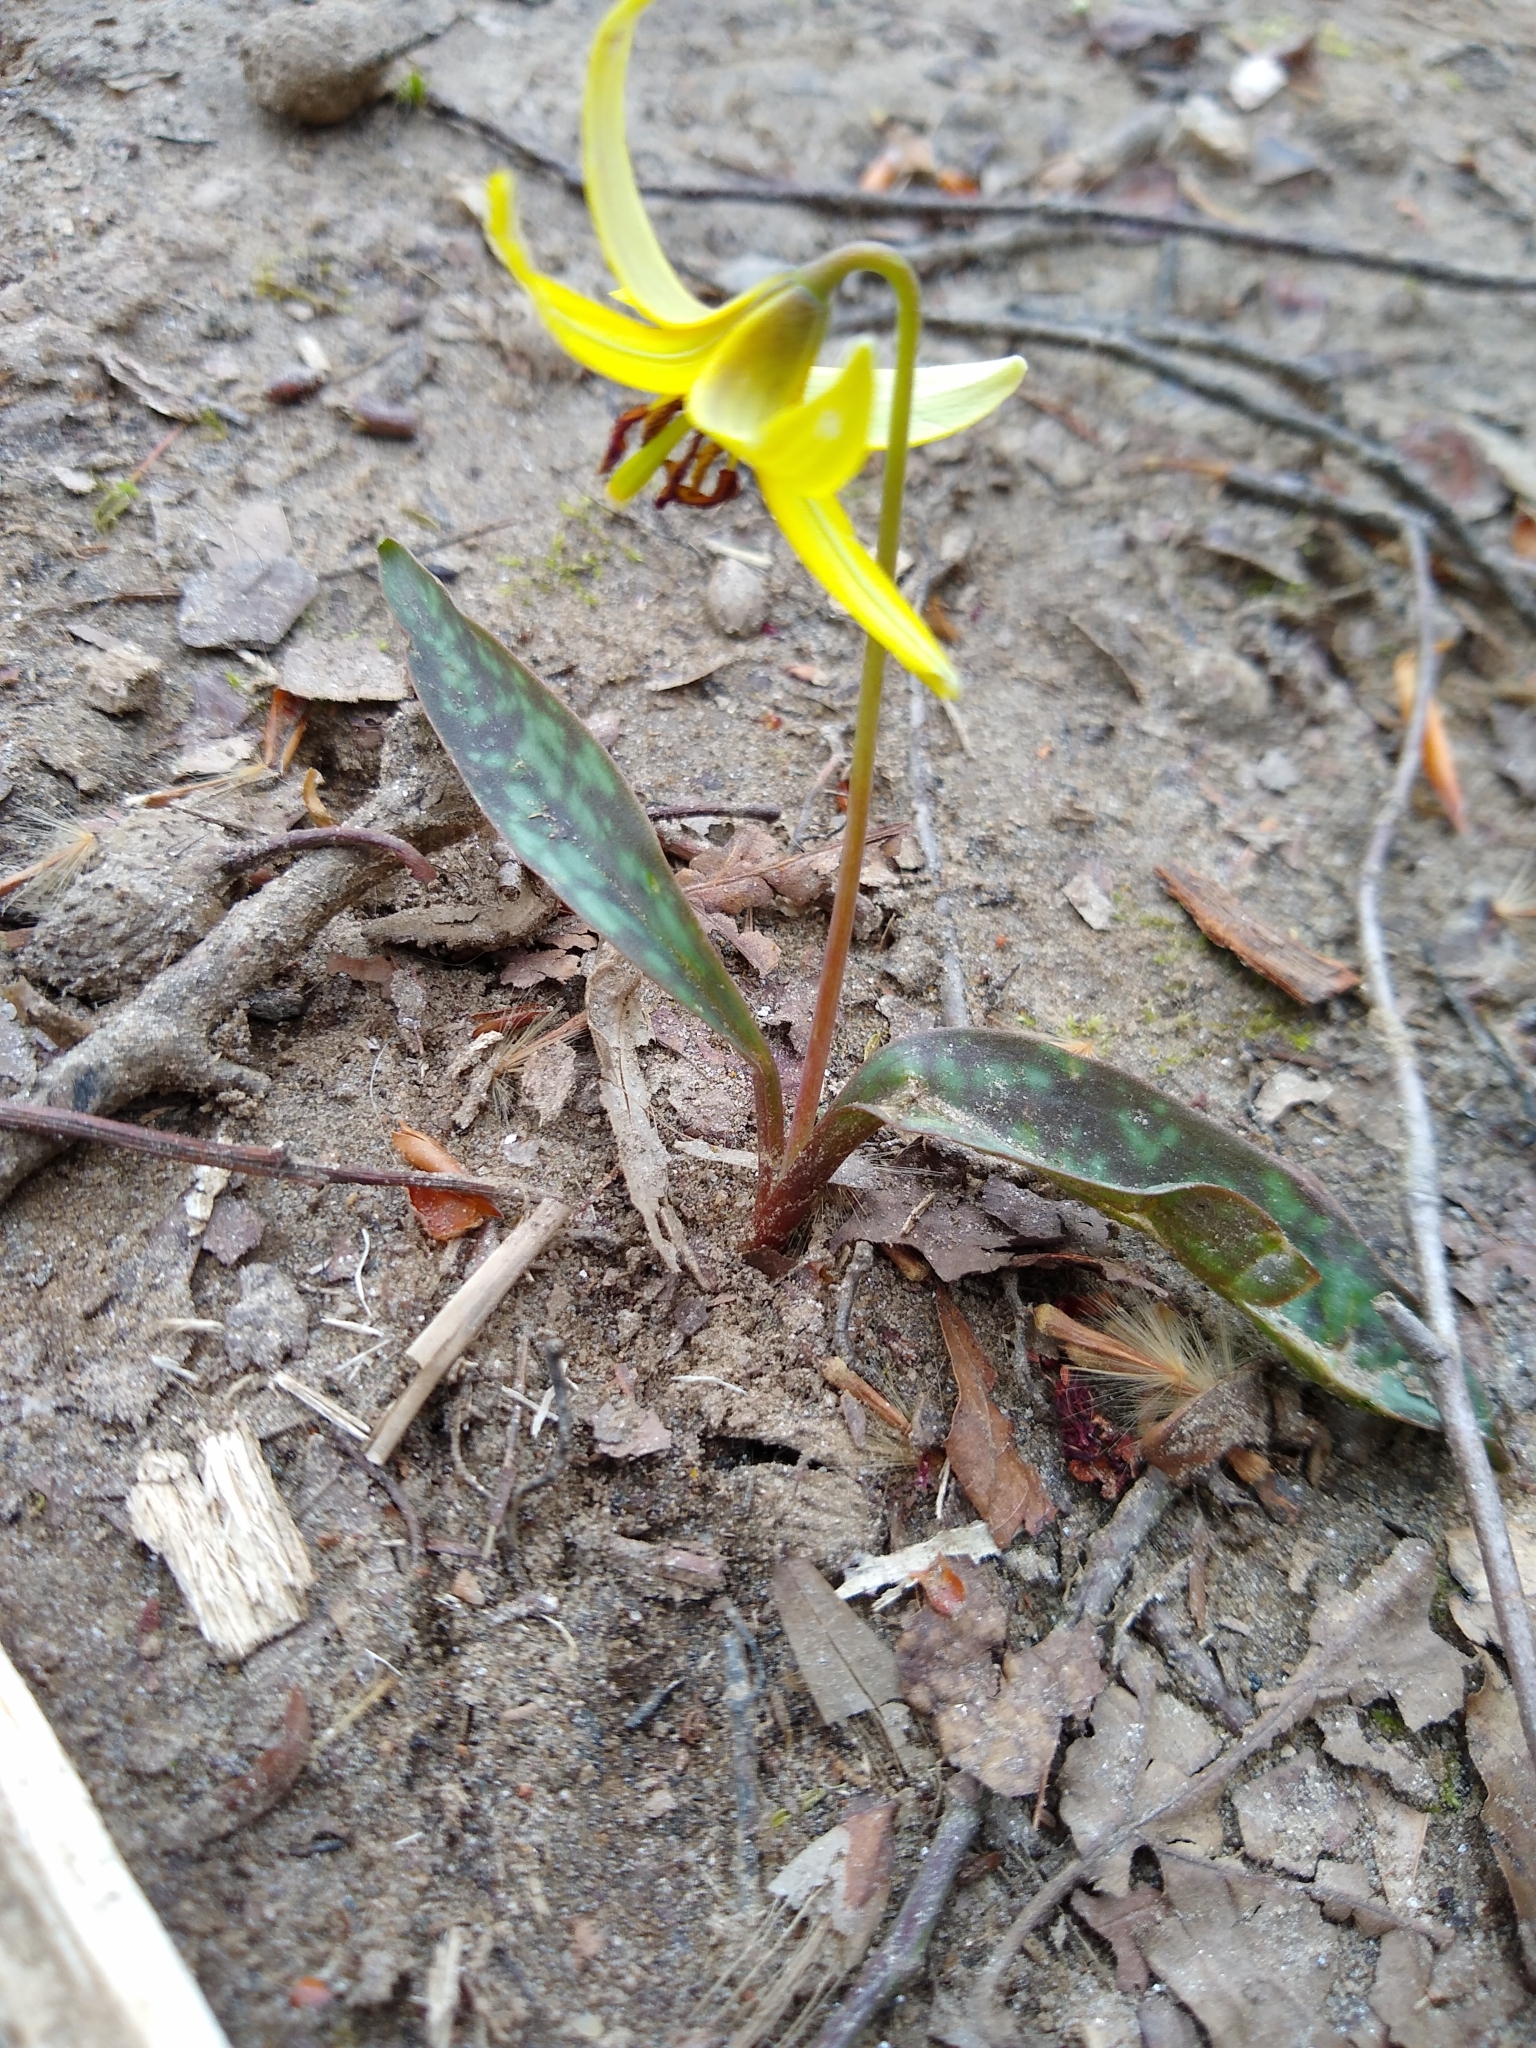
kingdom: Plantae
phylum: Tracheophyta
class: Liliopsida
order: Liliales
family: Liliaceae
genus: Erythronium
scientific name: Erythronium americanum
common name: Yellow adder's-tongue
